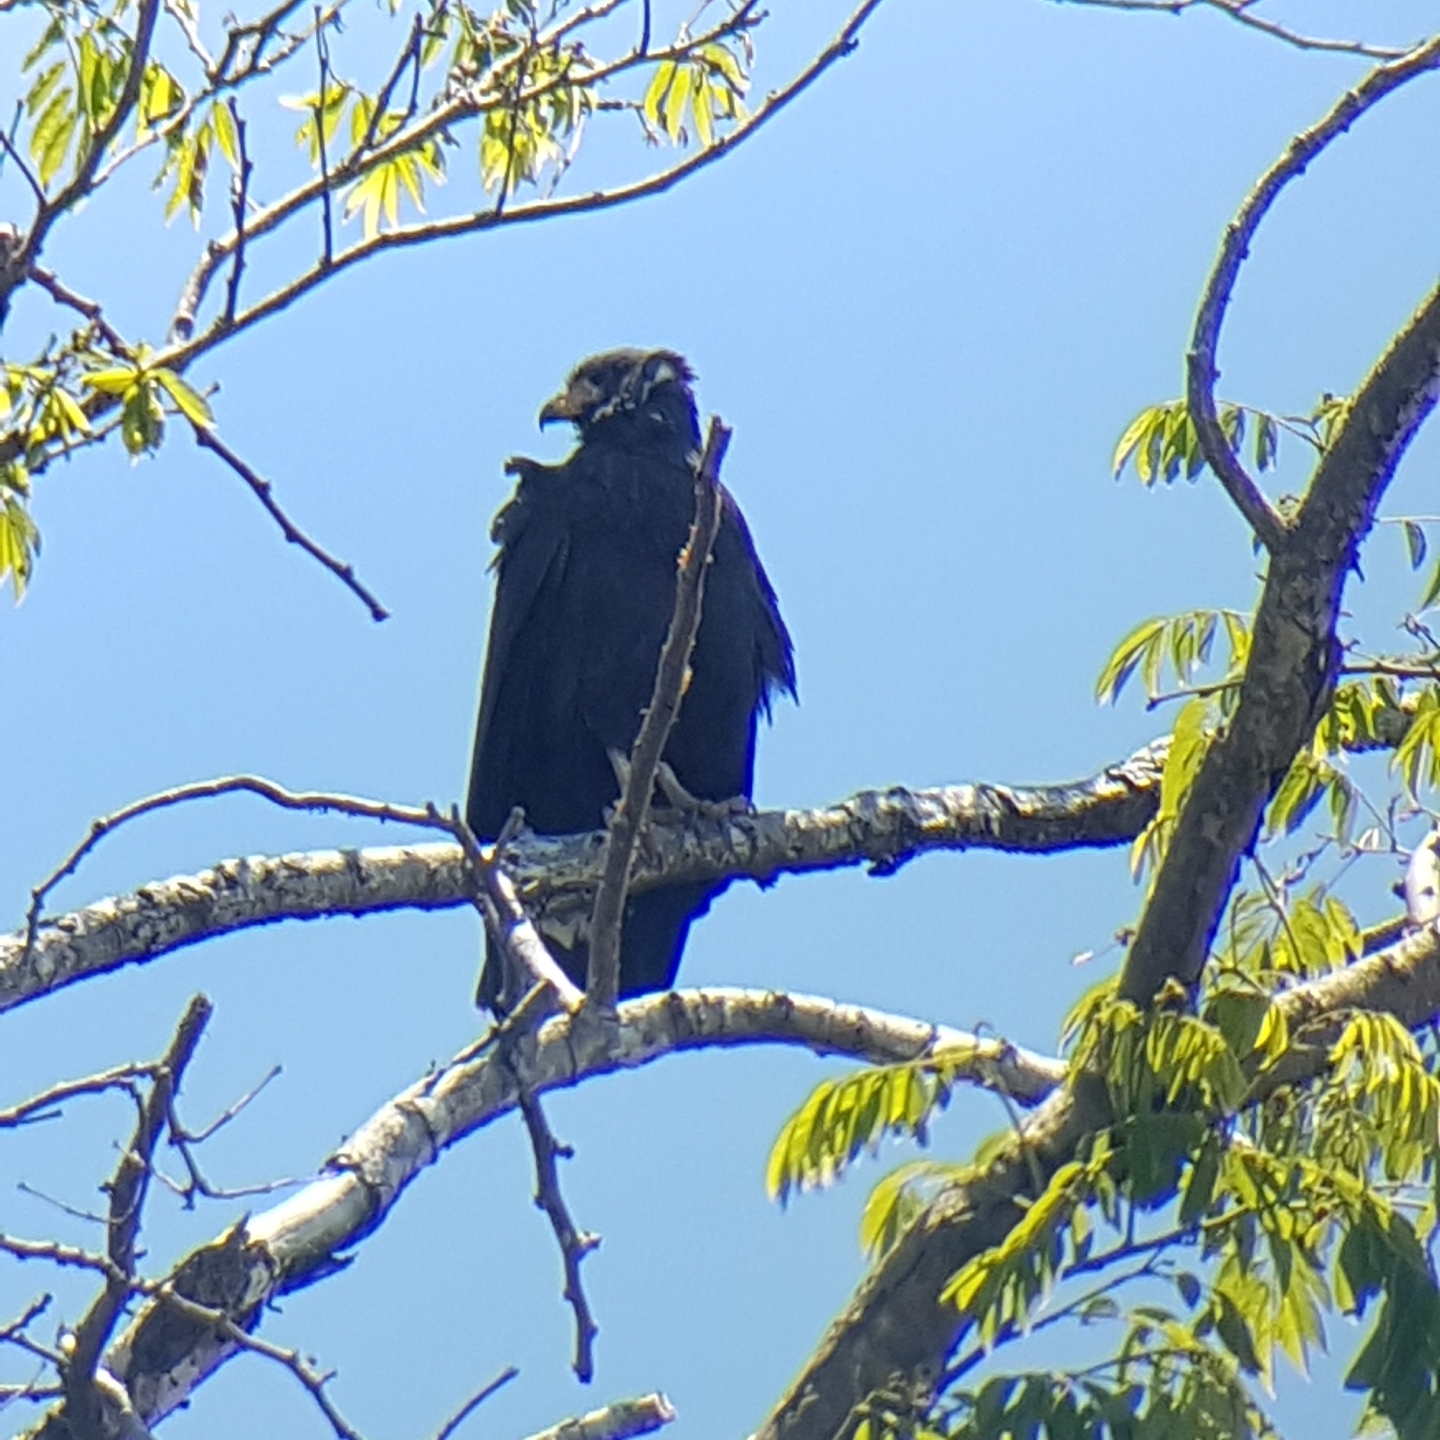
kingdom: Animalia
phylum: Chordata
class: Aves
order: Accipitriformes
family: Accipitridae
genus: Buteogallus
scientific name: Buteogallus anthracinus
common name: Common black hawk
